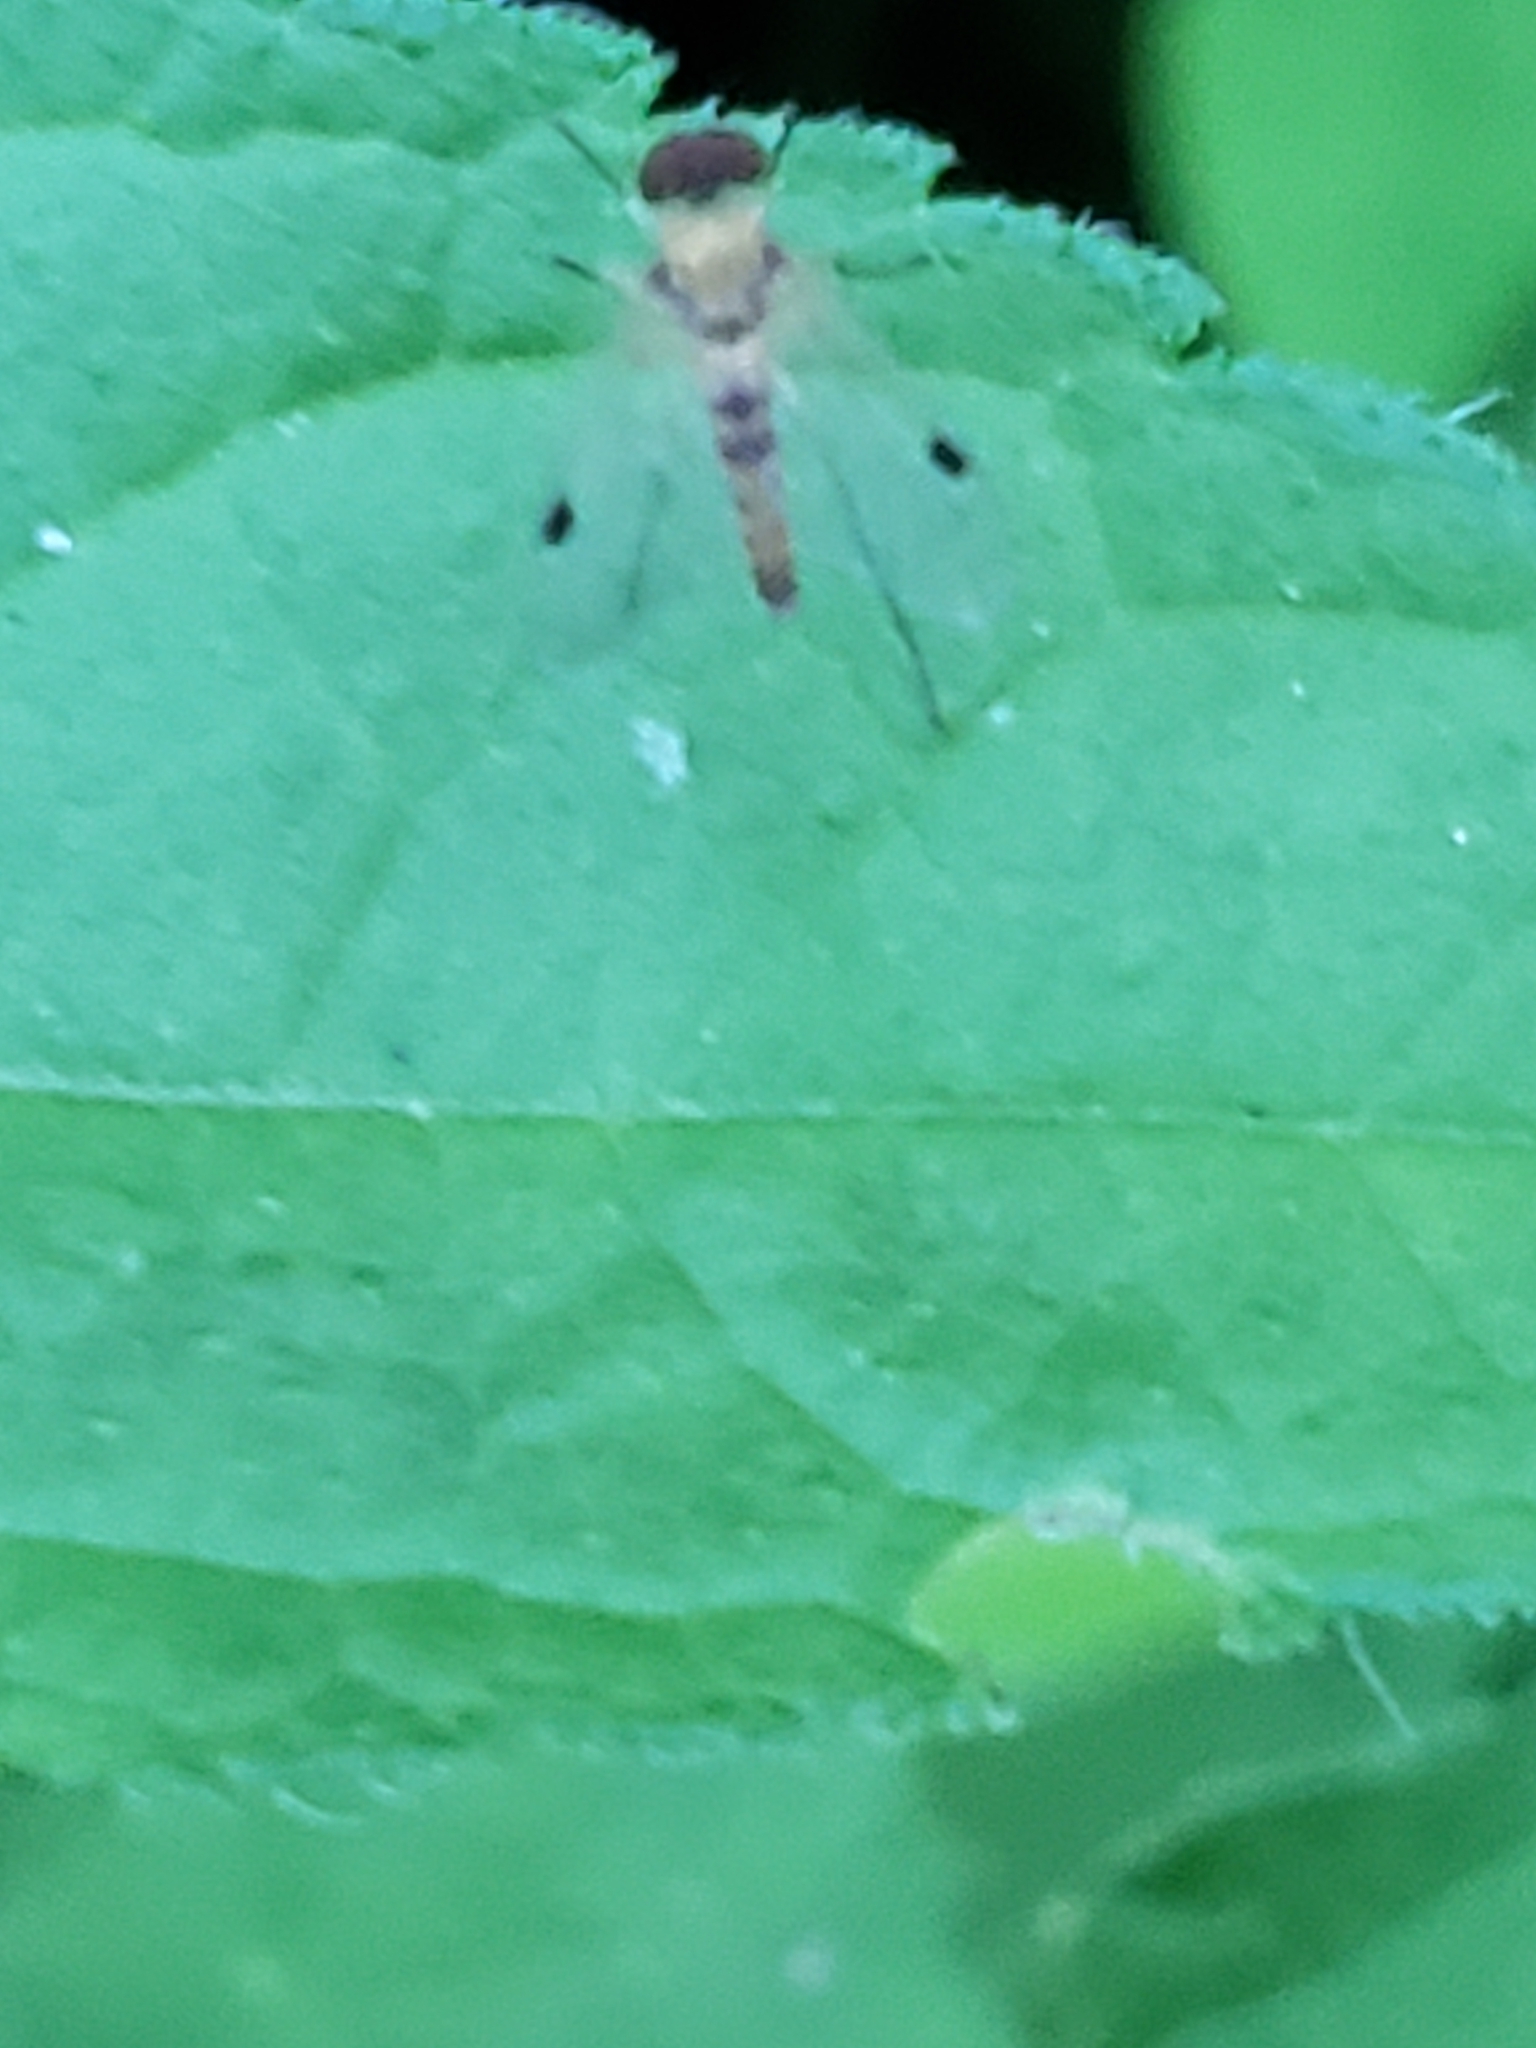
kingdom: Animalia
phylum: Arthropoda
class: Insecta
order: Diptera
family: Rhagionidae
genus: Chrysopilus
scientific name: Chrysopilus modestus
